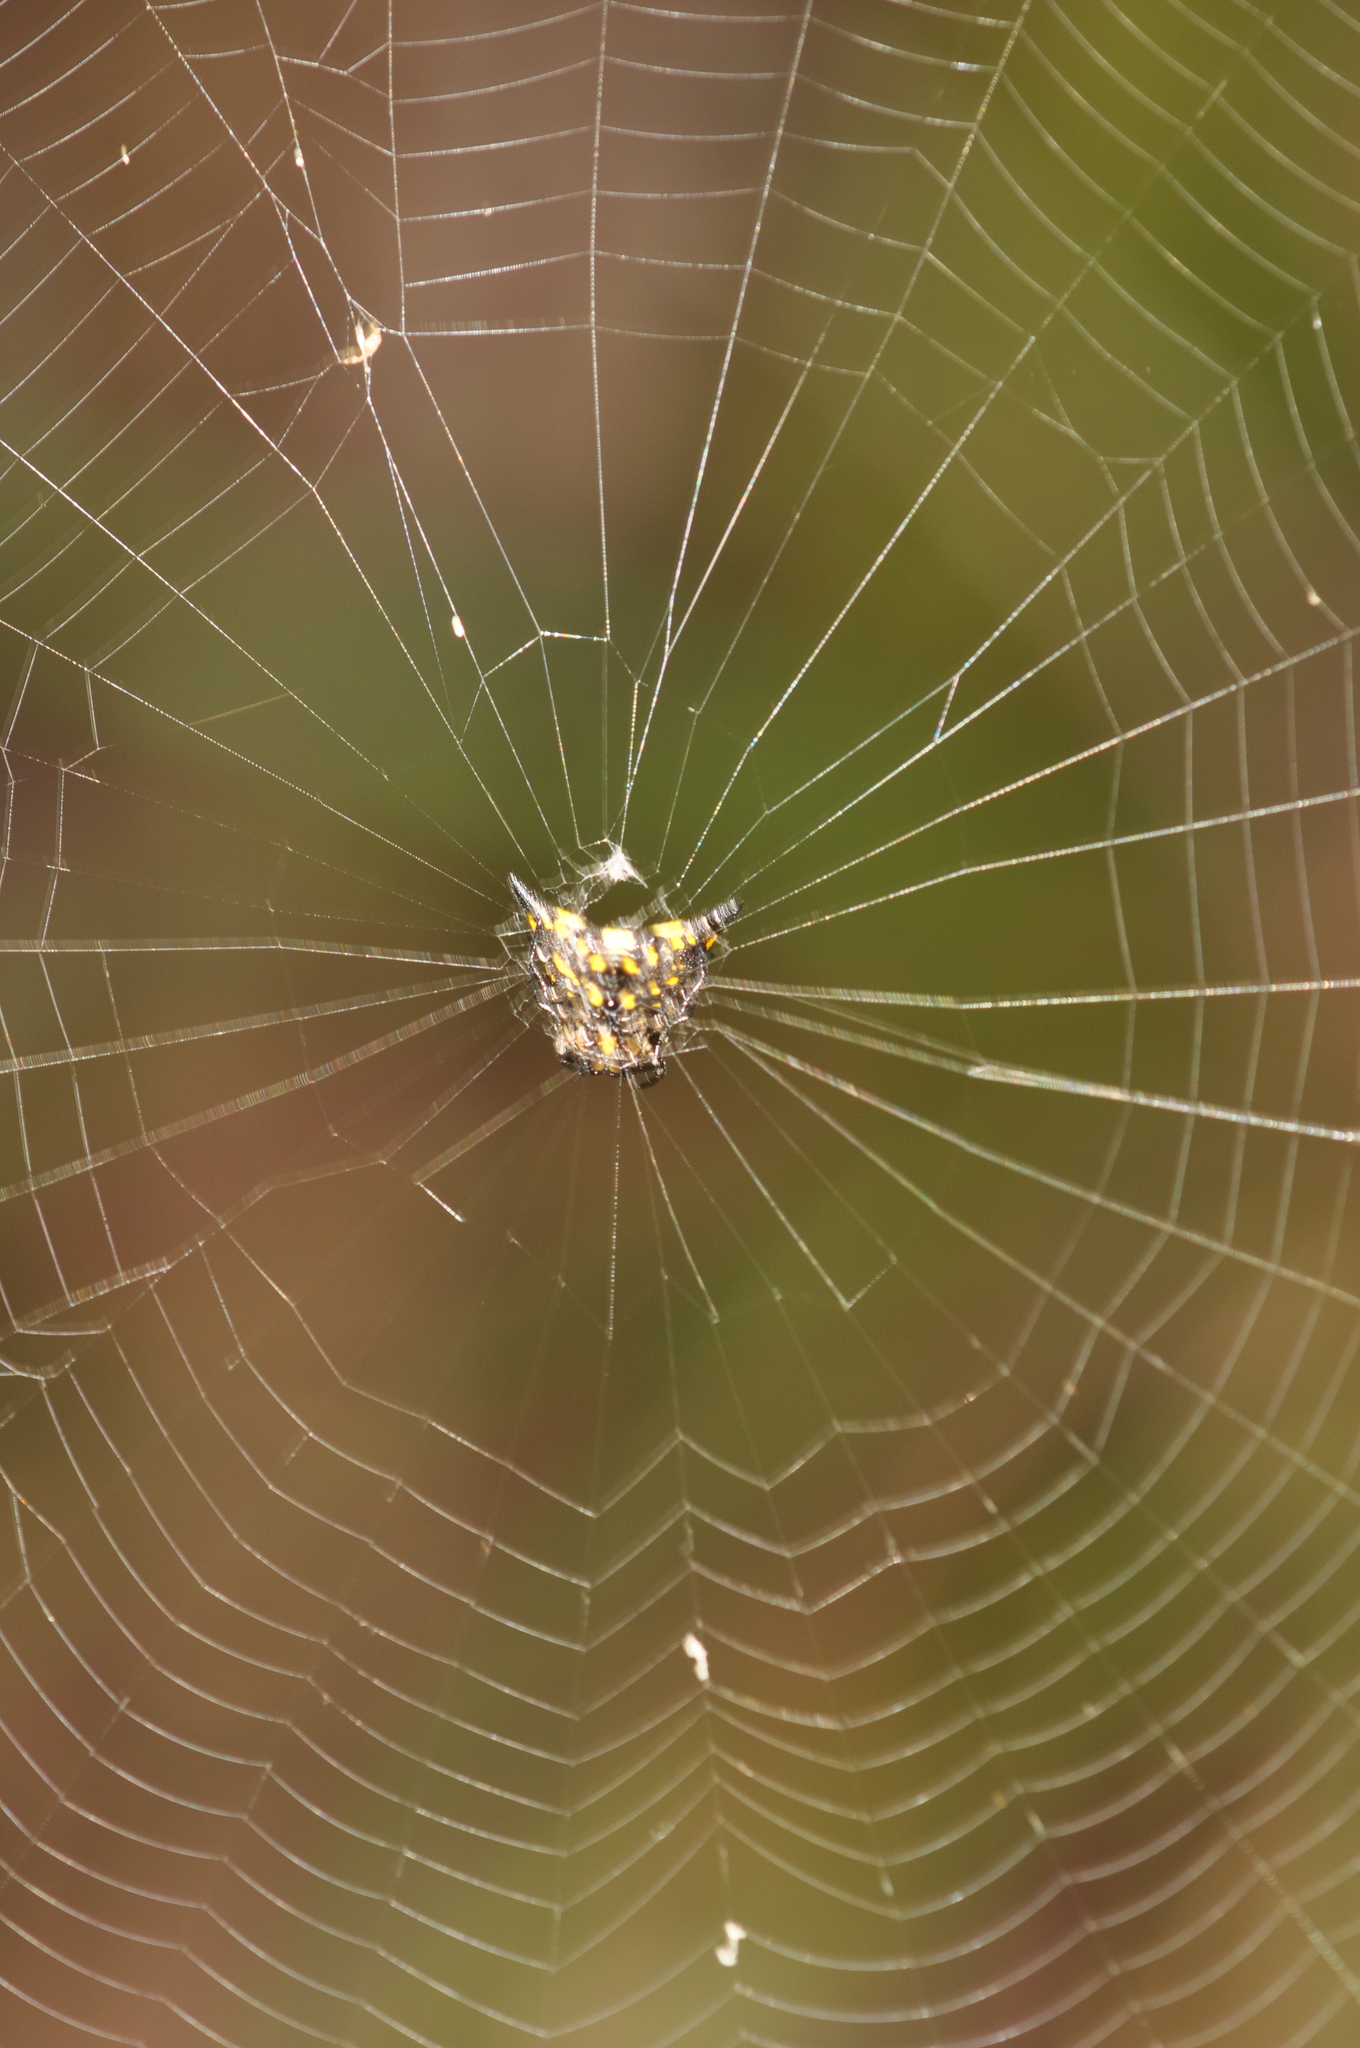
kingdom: Animalia
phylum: Arthropoda
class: Arachnida
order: Araneae
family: Araneidae
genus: Acrosomoides
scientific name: Acrosomoides acrosomoides
